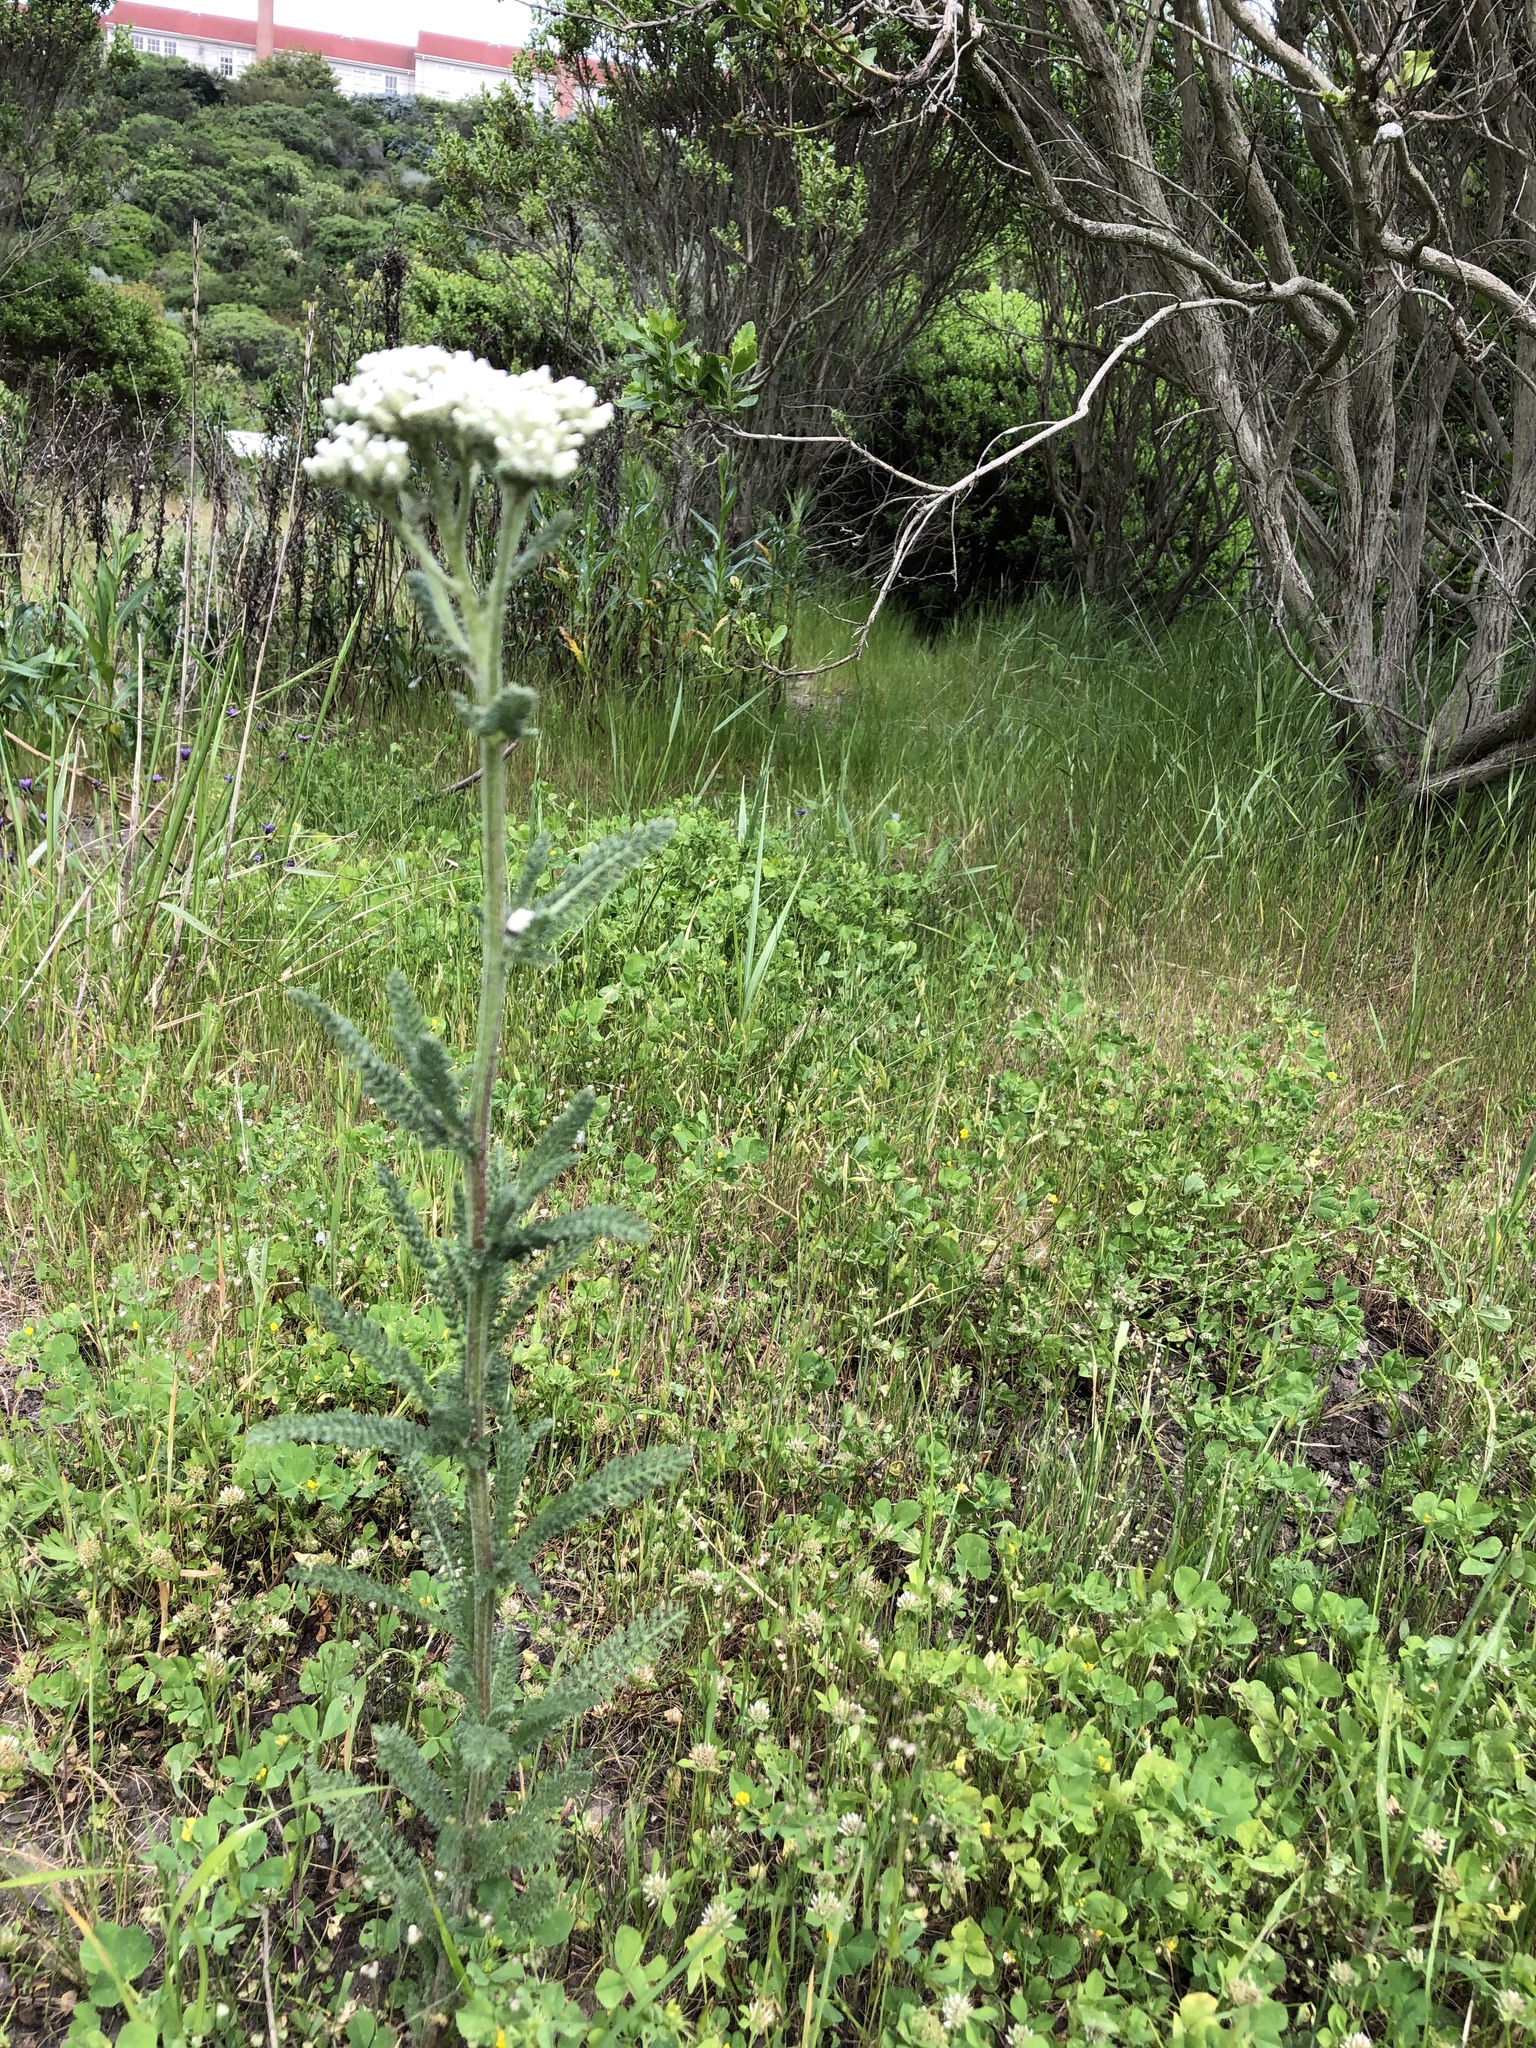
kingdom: Plantae
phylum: Tracheophyta
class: Magnoliopsida
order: Asterales
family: Asteraceae
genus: Achillea
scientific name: Achillea millefolium
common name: Yarrow
